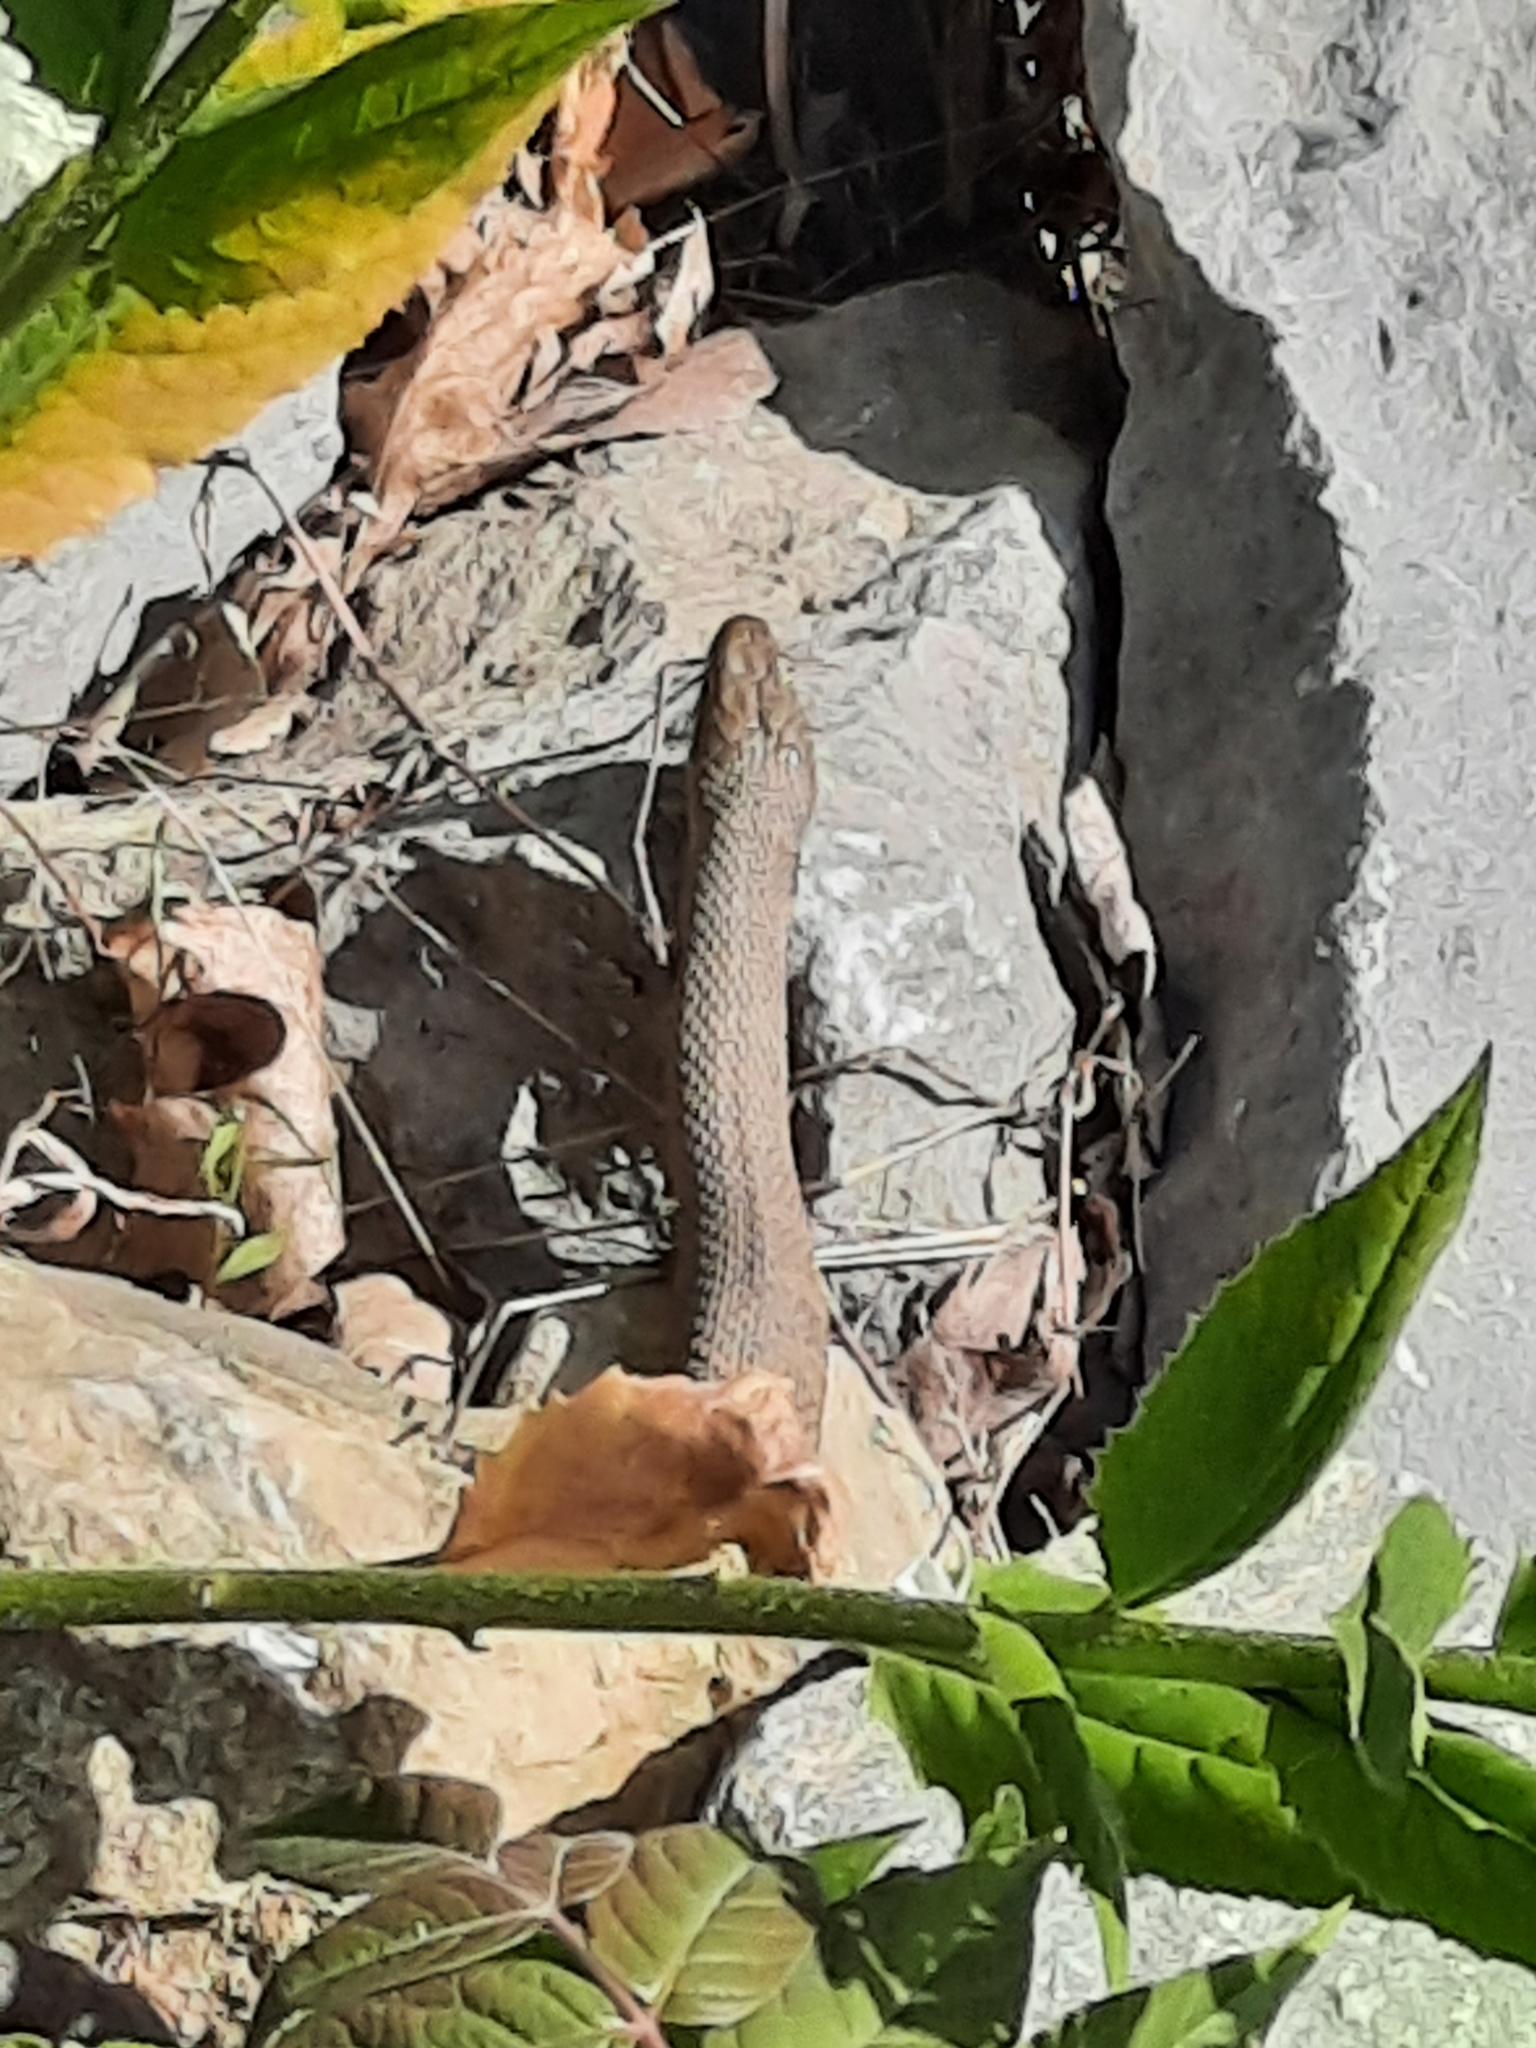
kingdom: Animalia
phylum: Chordata
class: Squamata
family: Colubridae
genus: Nerodia
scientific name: Nerodia sipedon
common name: Northern water snake
